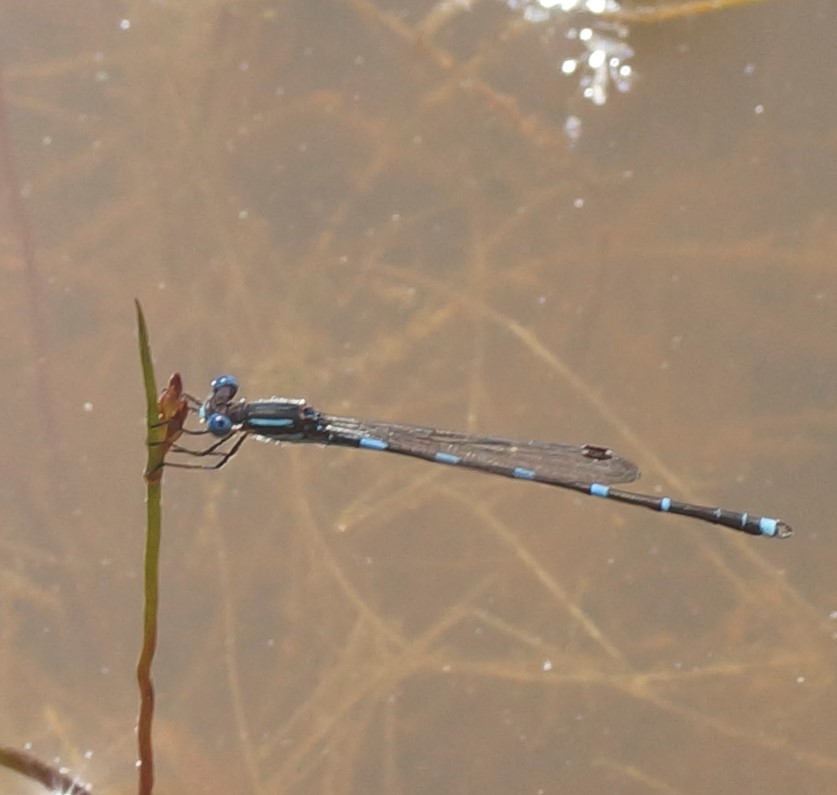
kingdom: Animalia
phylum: Arthropoda
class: Insecta
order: Odonata
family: Lestidae
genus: Austrolestes
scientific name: Austrolestes leda
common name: Wandering ringtail
